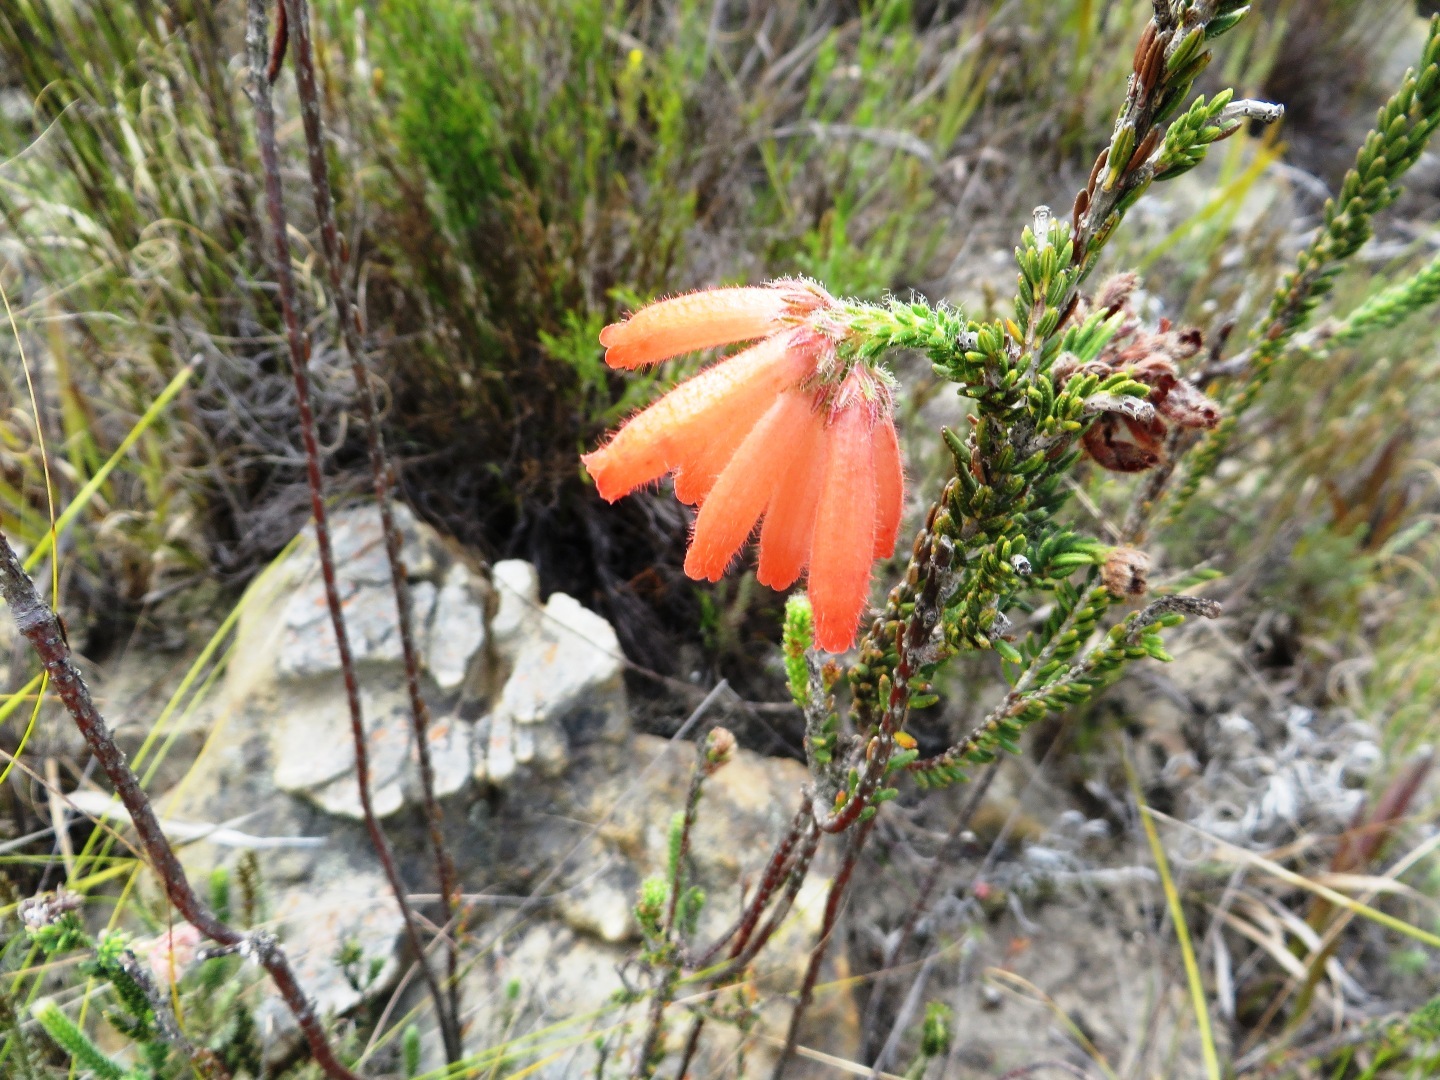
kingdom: Plantae
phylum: Tracheophyta
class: Magnoliopsida
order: Ericales
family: Ericaceae
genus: Erica
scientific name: Erica cerinthoides
